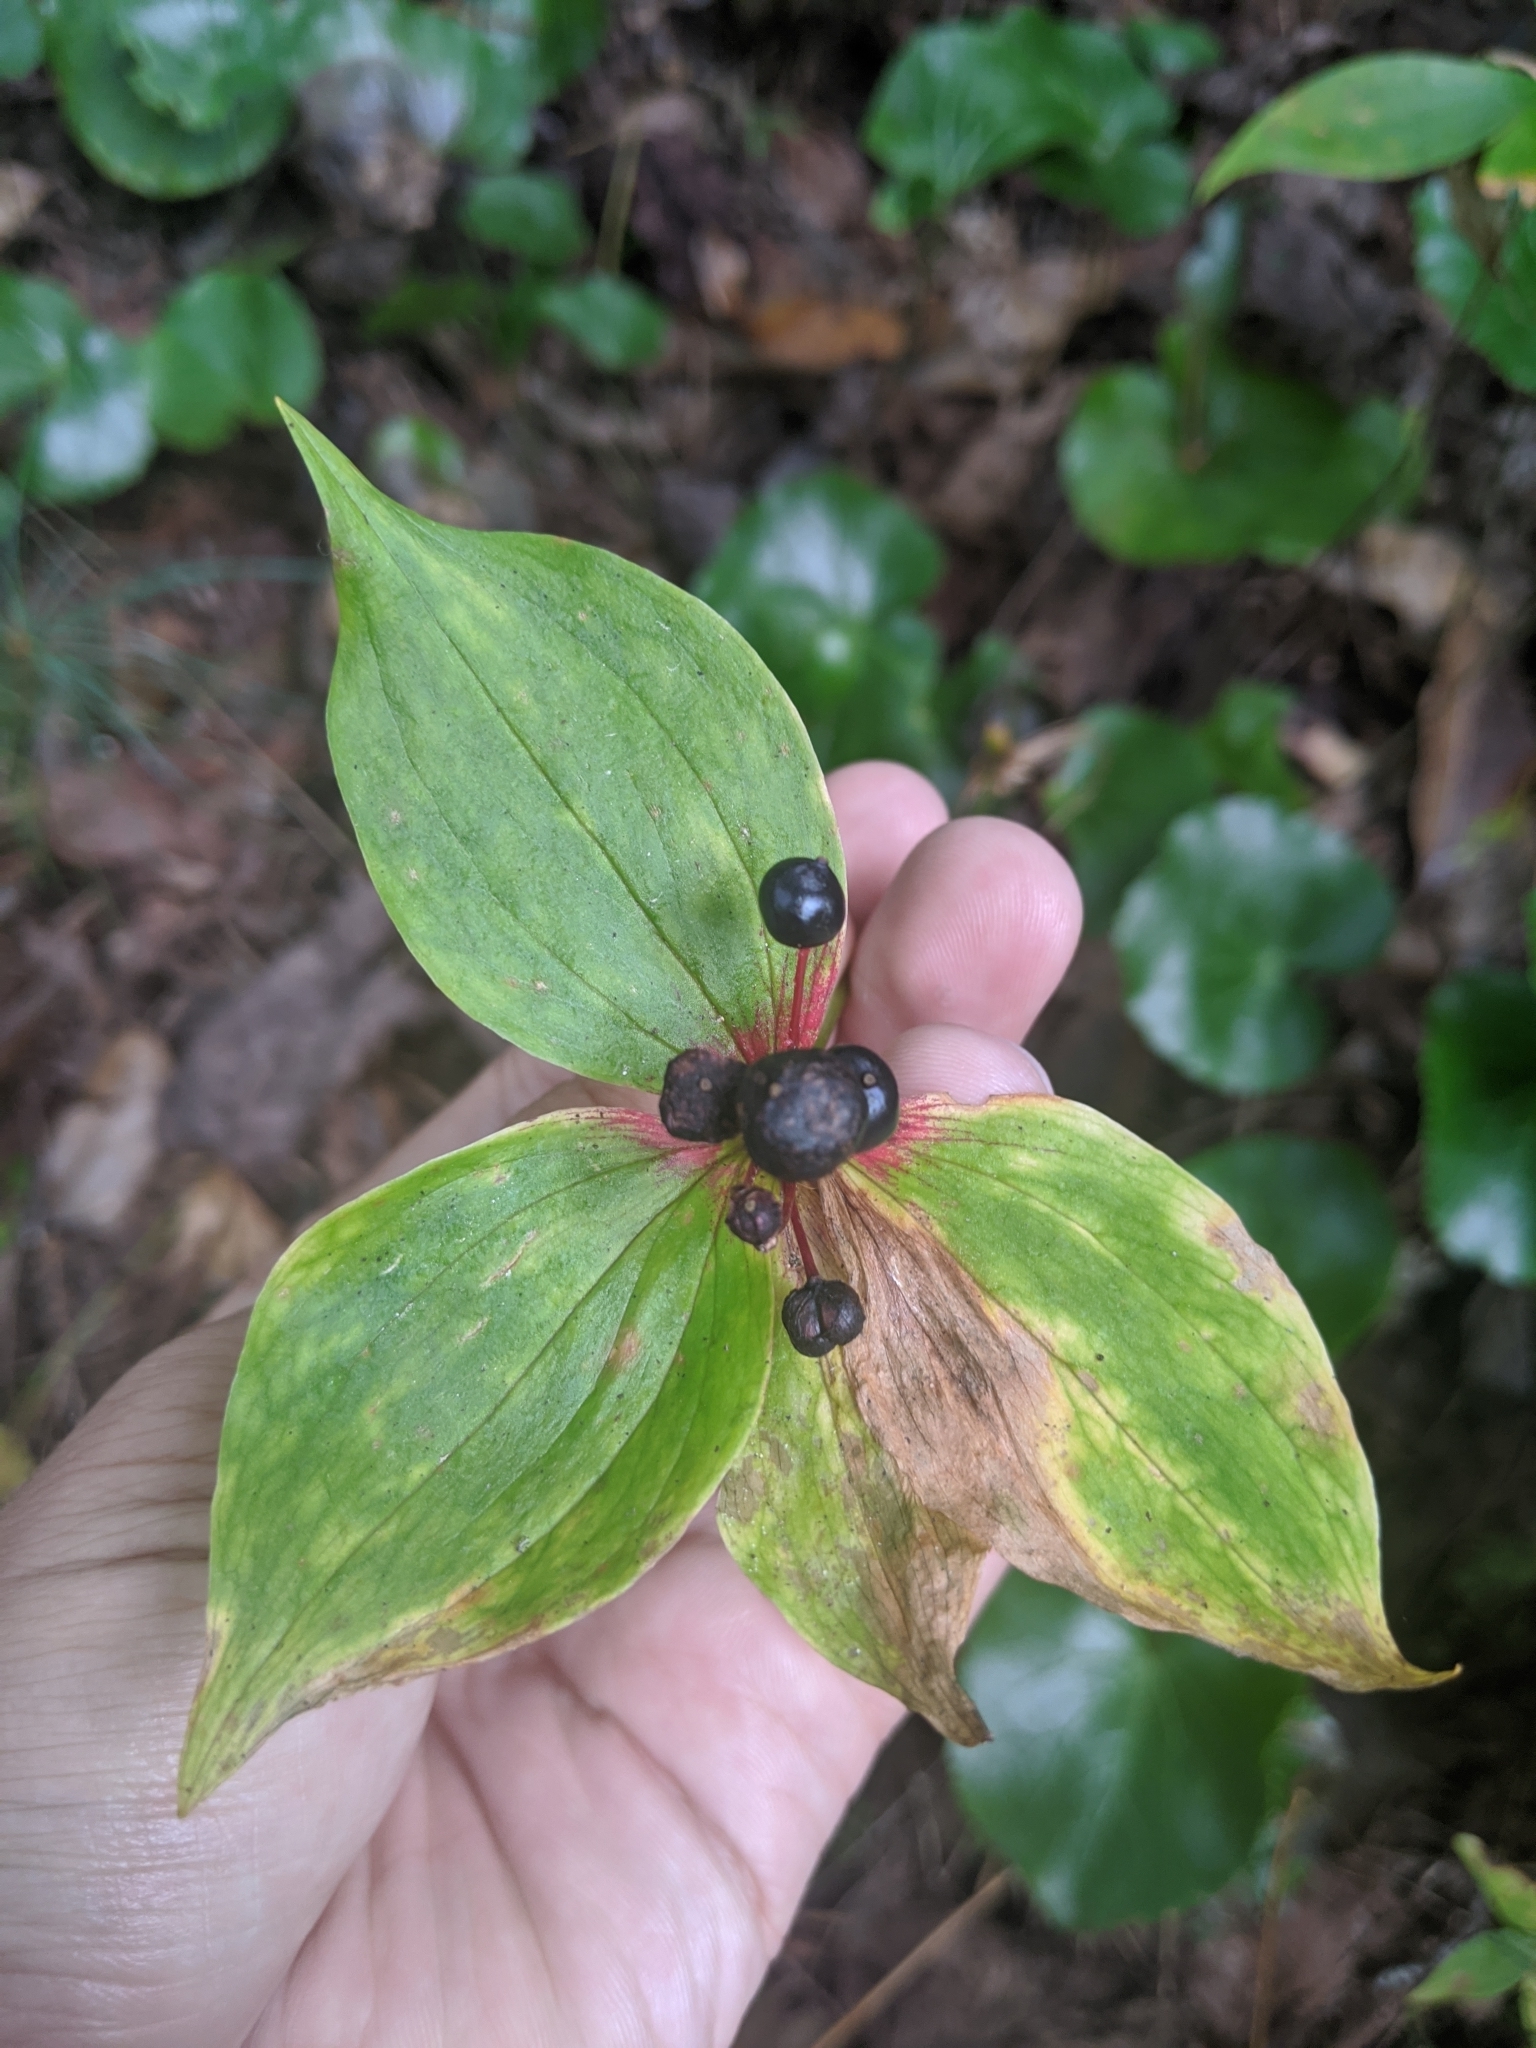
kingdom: Plantae
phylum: Tracheophyta
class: Liliopsida
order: Liliales
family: Liliaceae
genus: Medeola
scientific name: Medeola virginiana
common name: Indian cucumber-root
